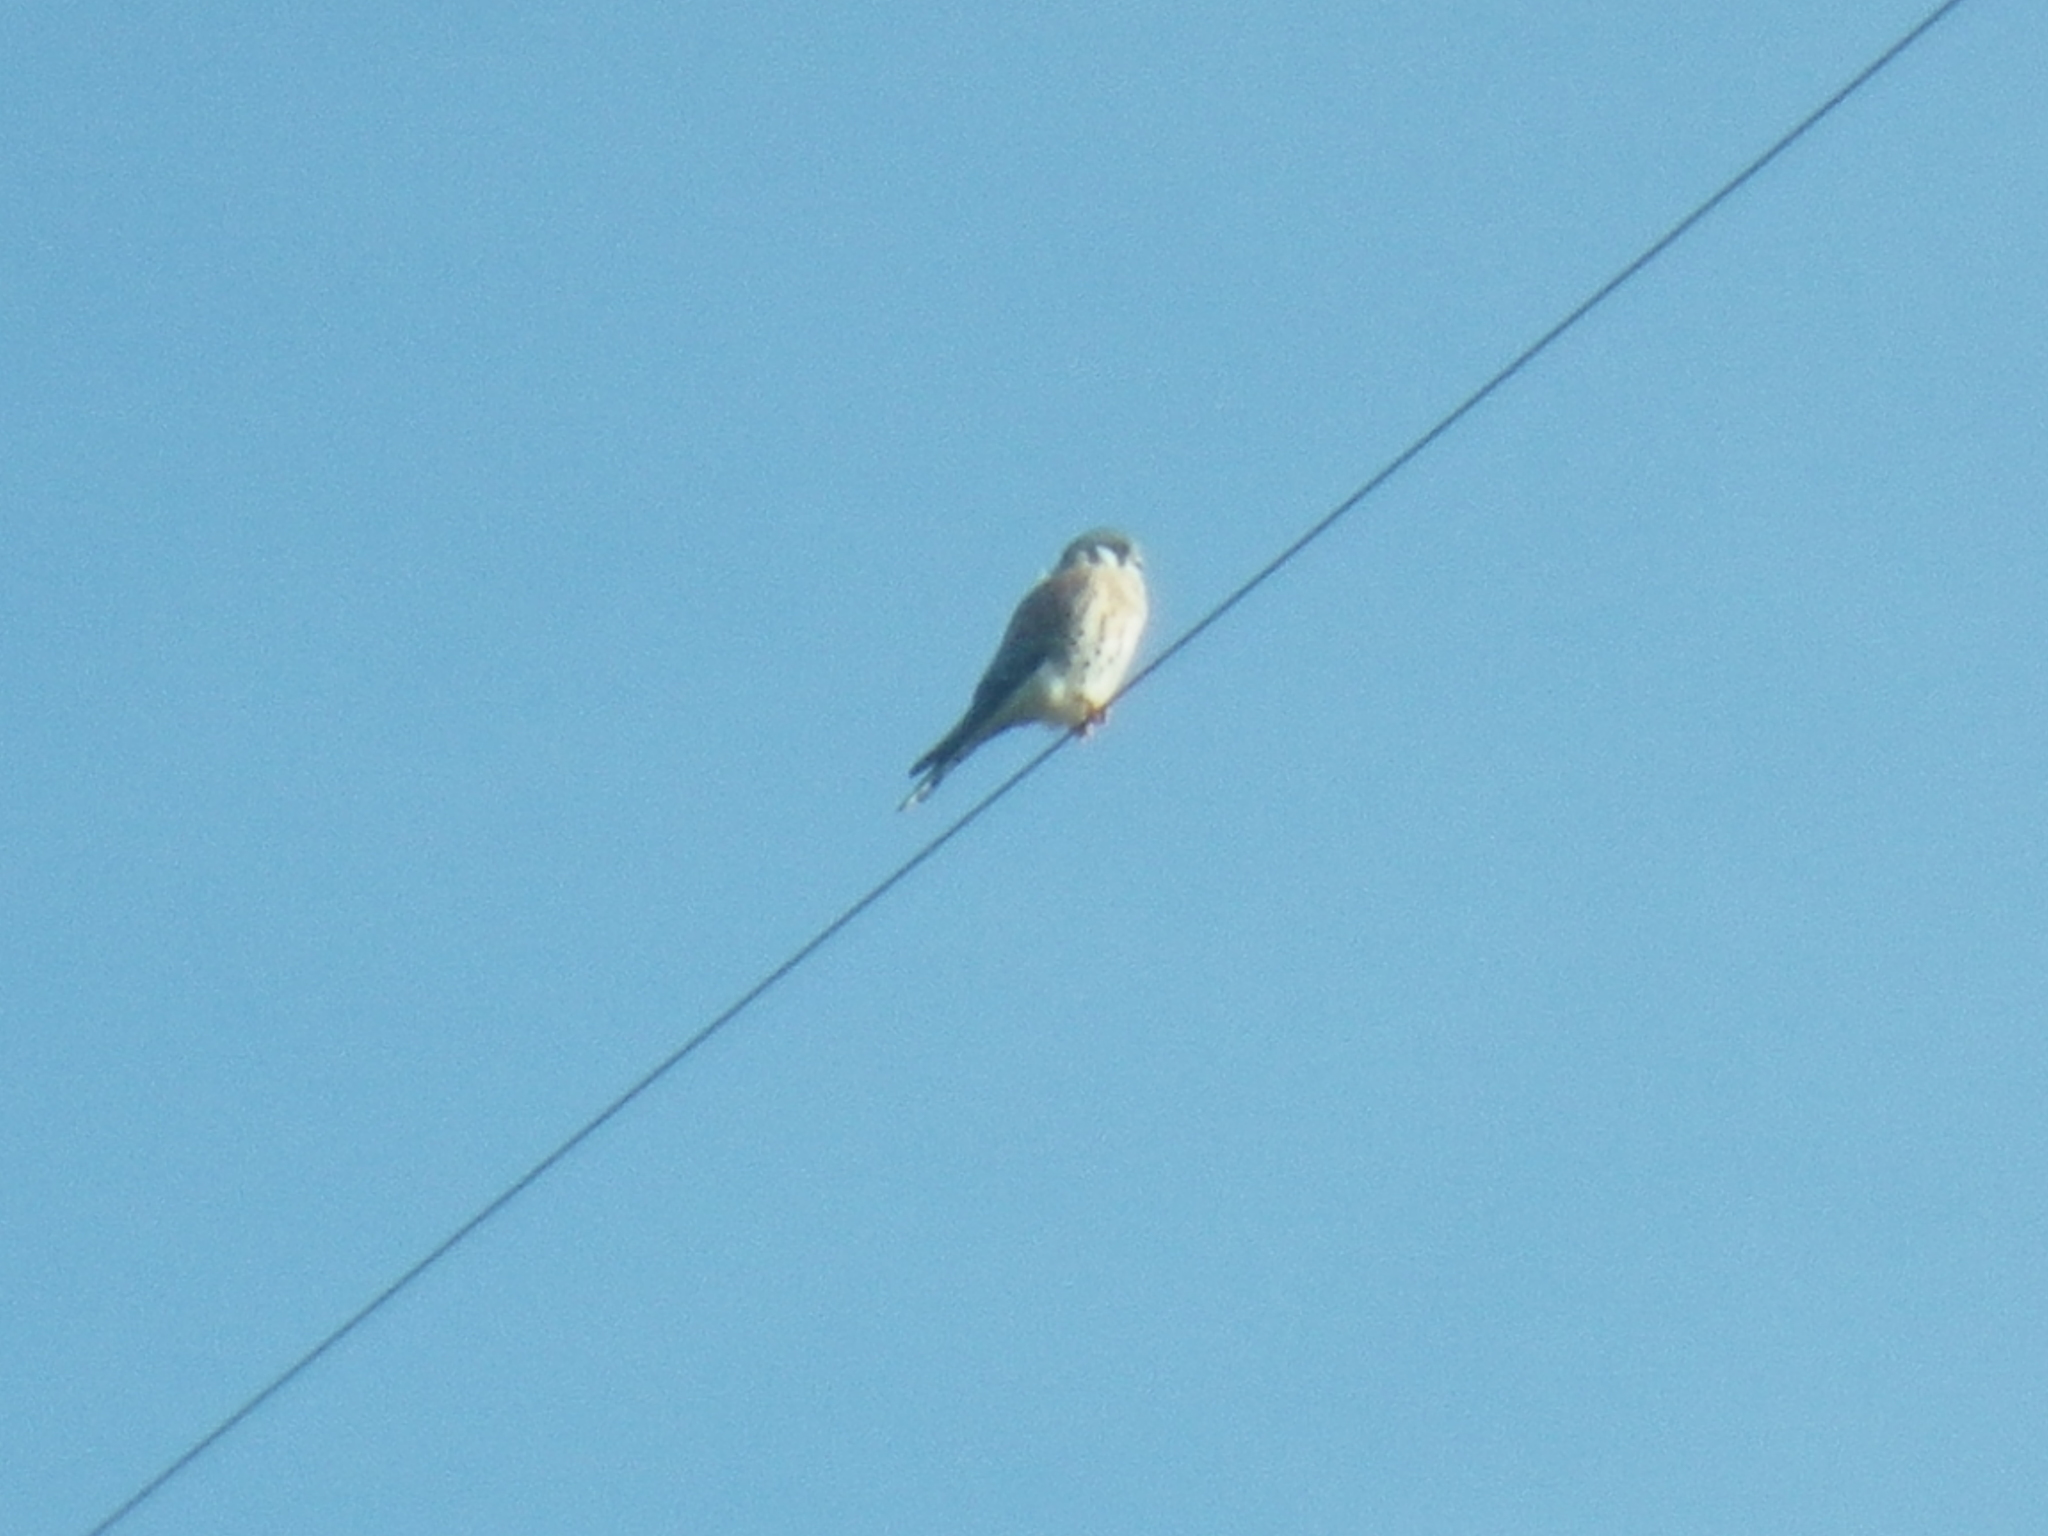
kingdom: Animalia
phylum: Chordata
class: Aves
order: Falconiformes
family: Falconidae
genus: Falco
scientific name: Falco sparverius
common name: American kestrel
